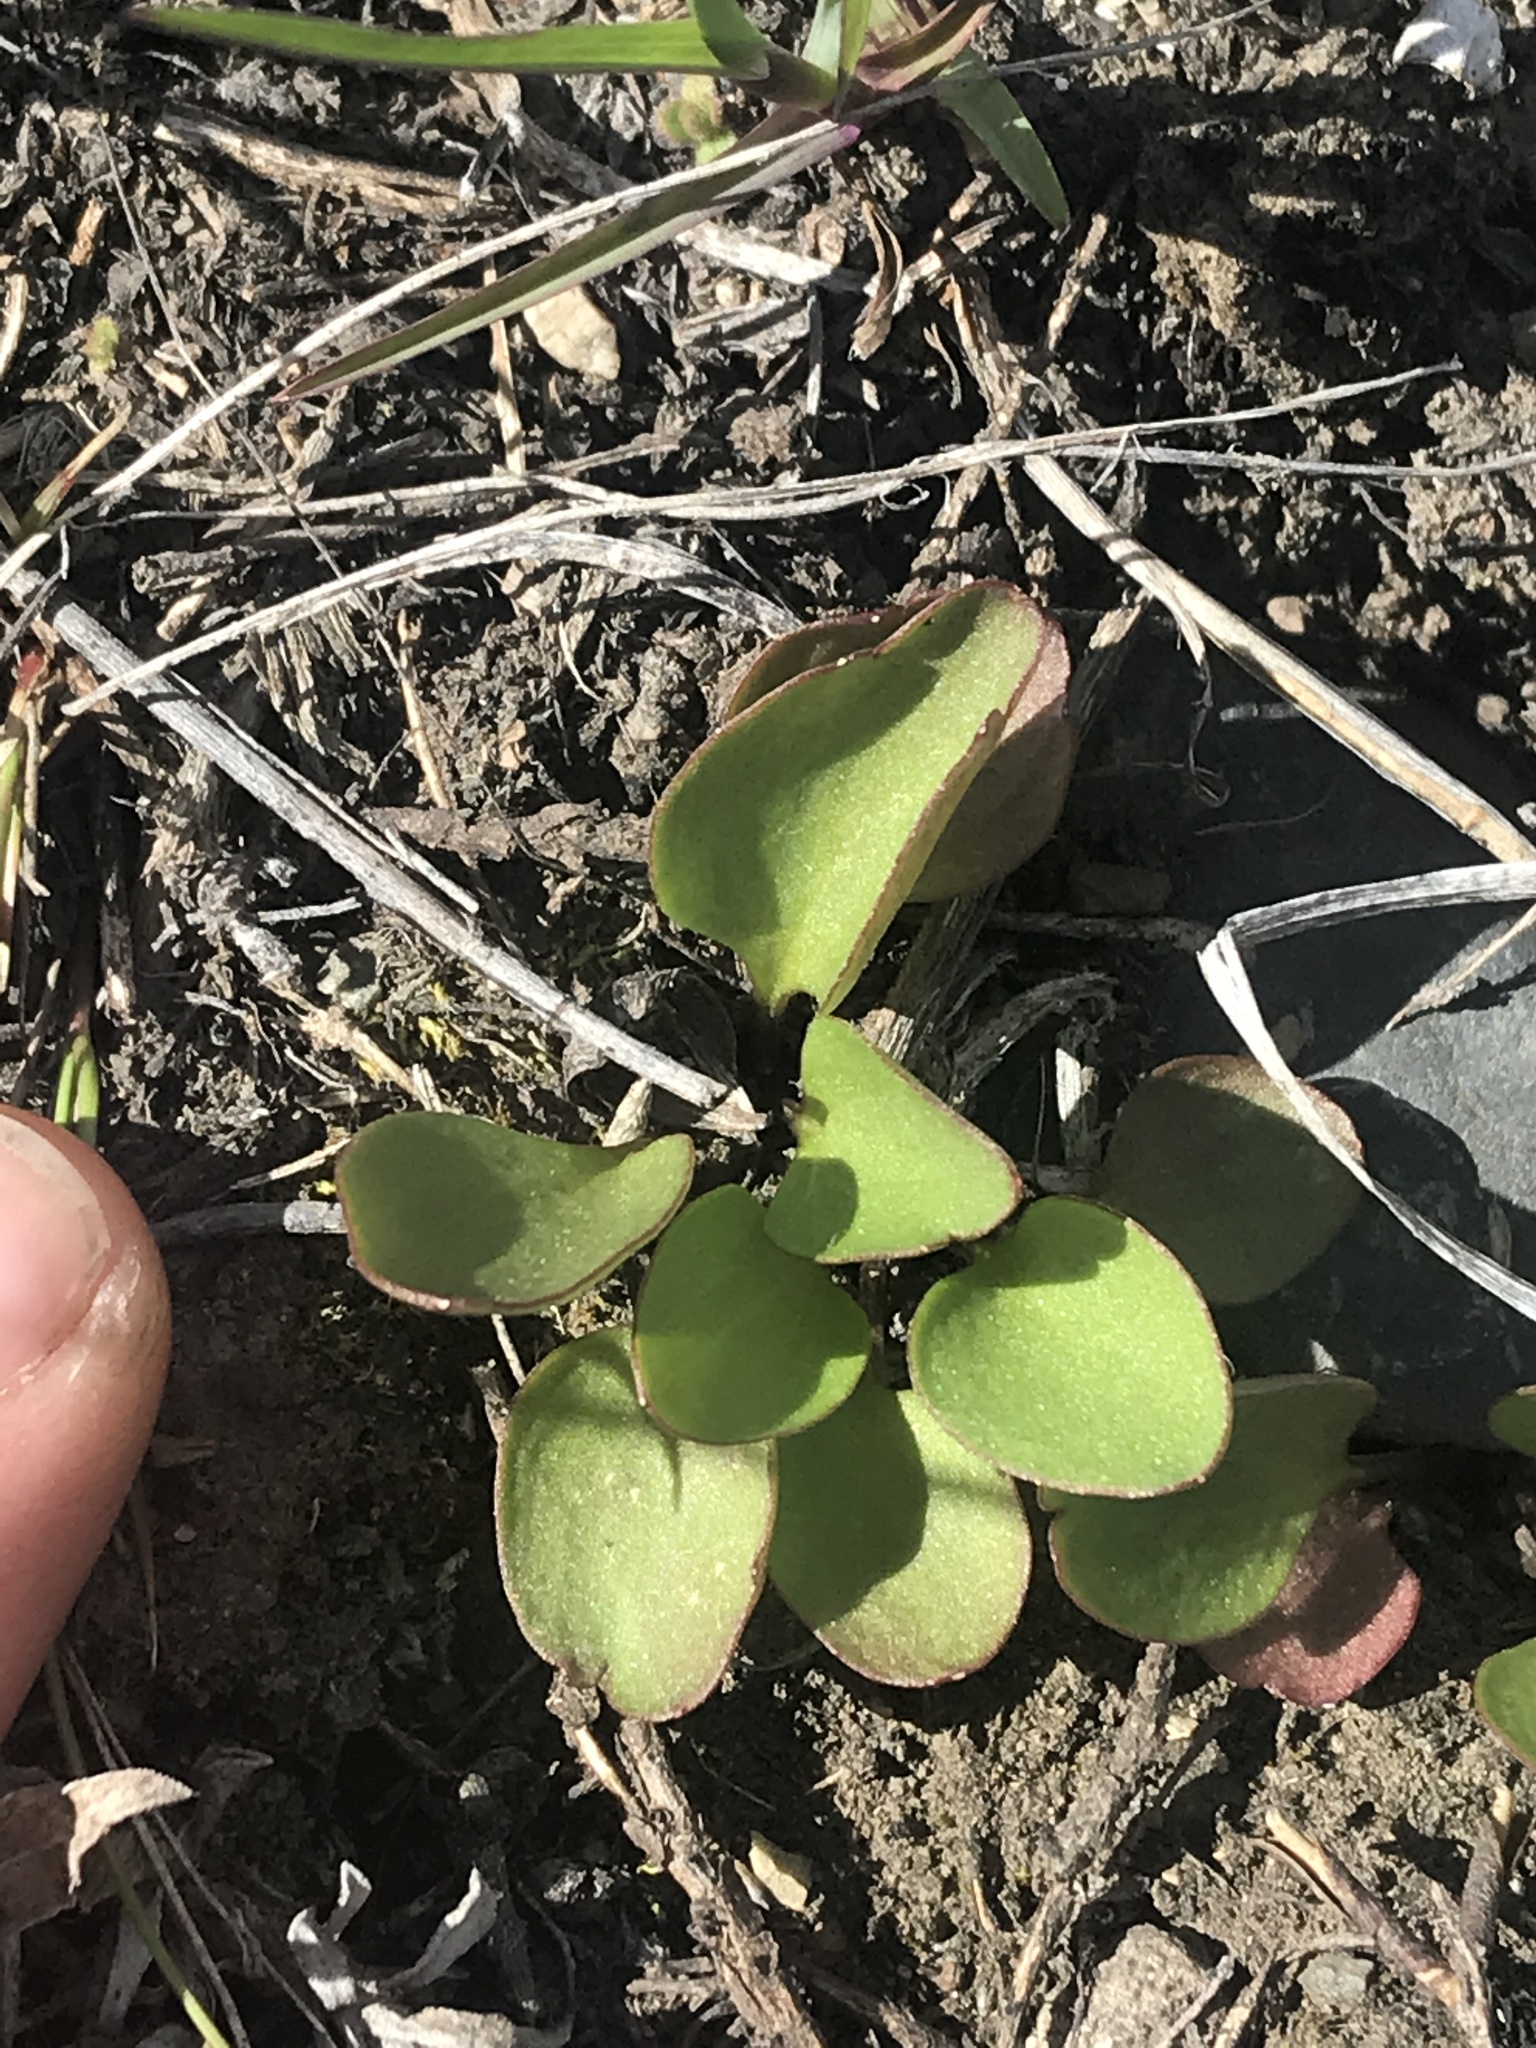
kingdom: Plantae
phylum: Tracheophyta
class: Magnoliopsida
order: Ranunculales
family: Ranunculaceae
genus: Ranunculus
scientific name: Ranunculus glaberrimus
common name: Sagebrush buttercup
